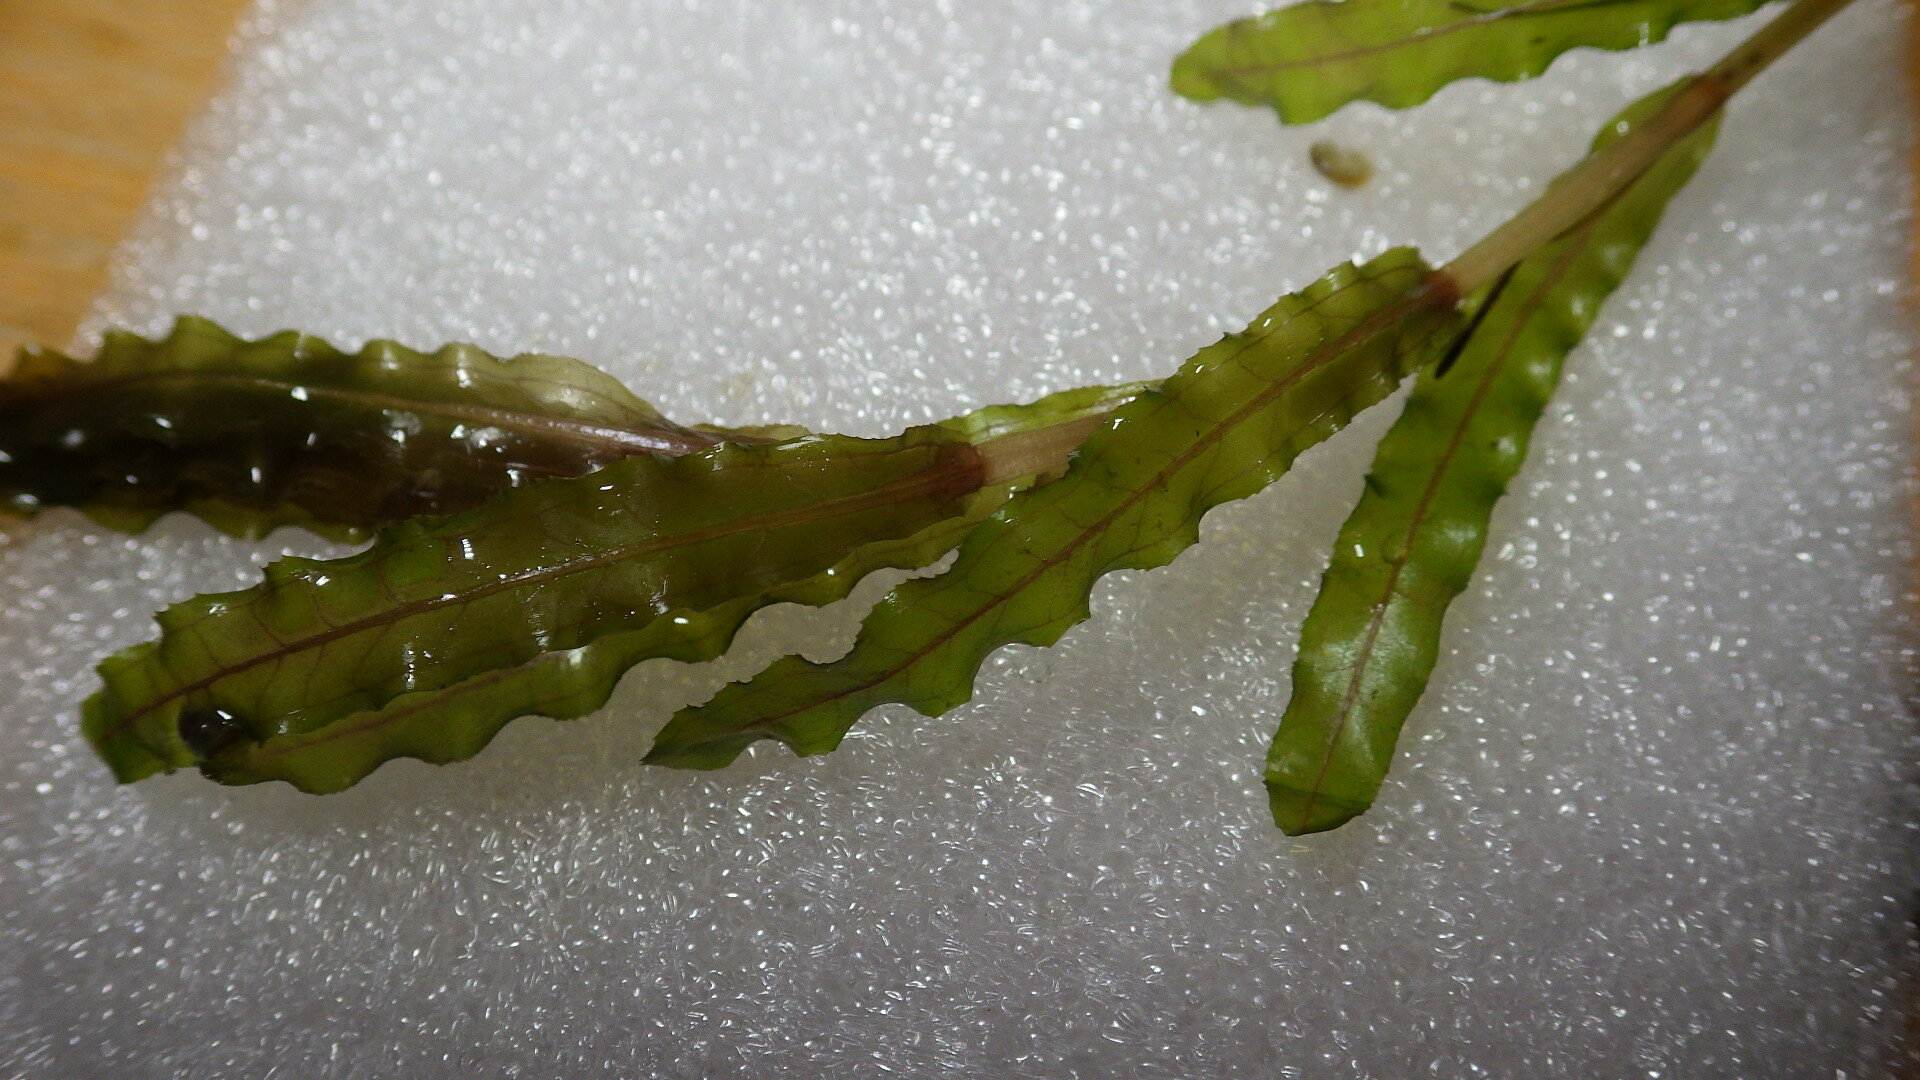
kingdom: Plantae
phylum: Tracheophyta
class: Liliopsida
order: Alismatales
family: Potamogetonaceae
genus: Potamogeton
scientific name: Potamogeton crispus
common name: Curled pondweed
